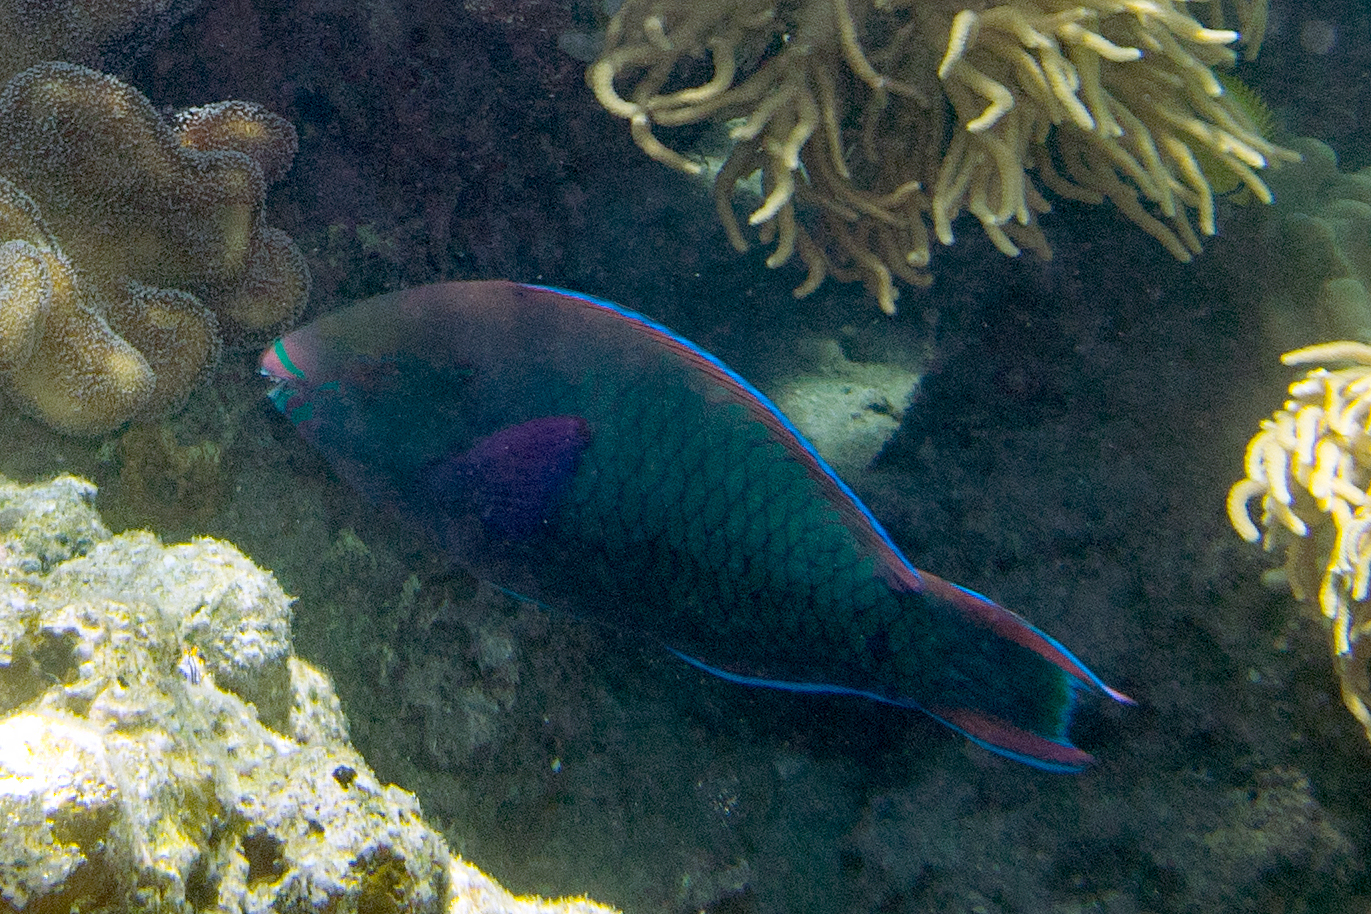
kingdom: Animalia
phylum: Chordata
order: Perciformes
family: Scaridae
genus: Scarus
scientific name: Scarus niger
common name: Dusky parrotfish
